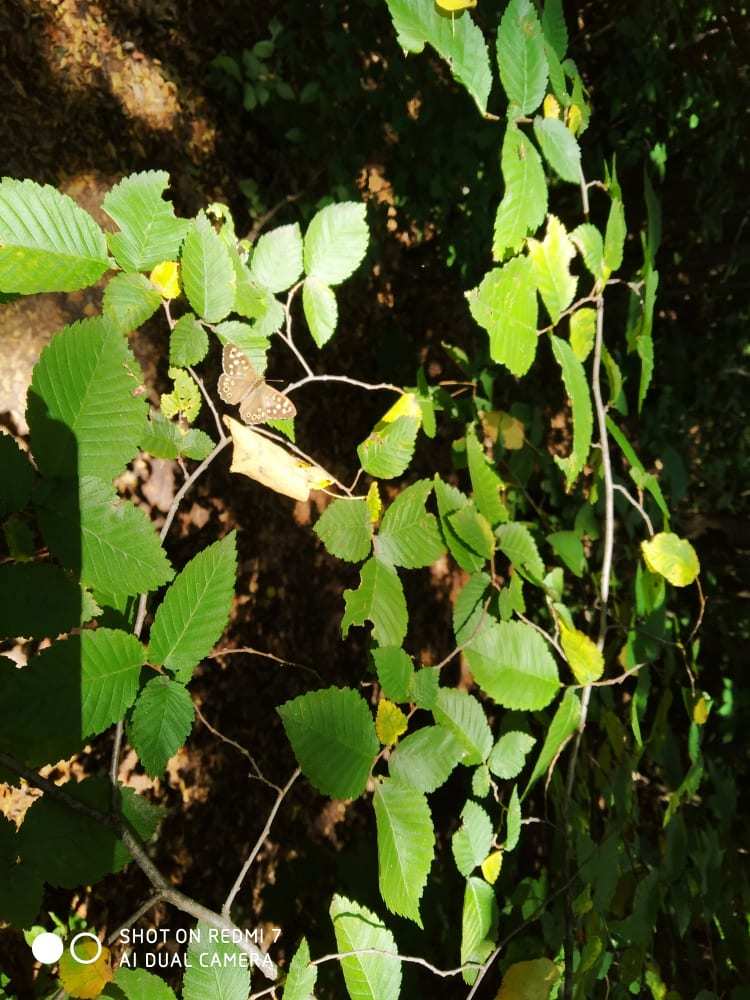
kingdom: Animalia
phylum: Arthropoda
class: Insecta
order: Lepidoptera
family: Nymphalidae
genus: Pararge
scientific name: Pararge aegeria
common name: Speckled wood
